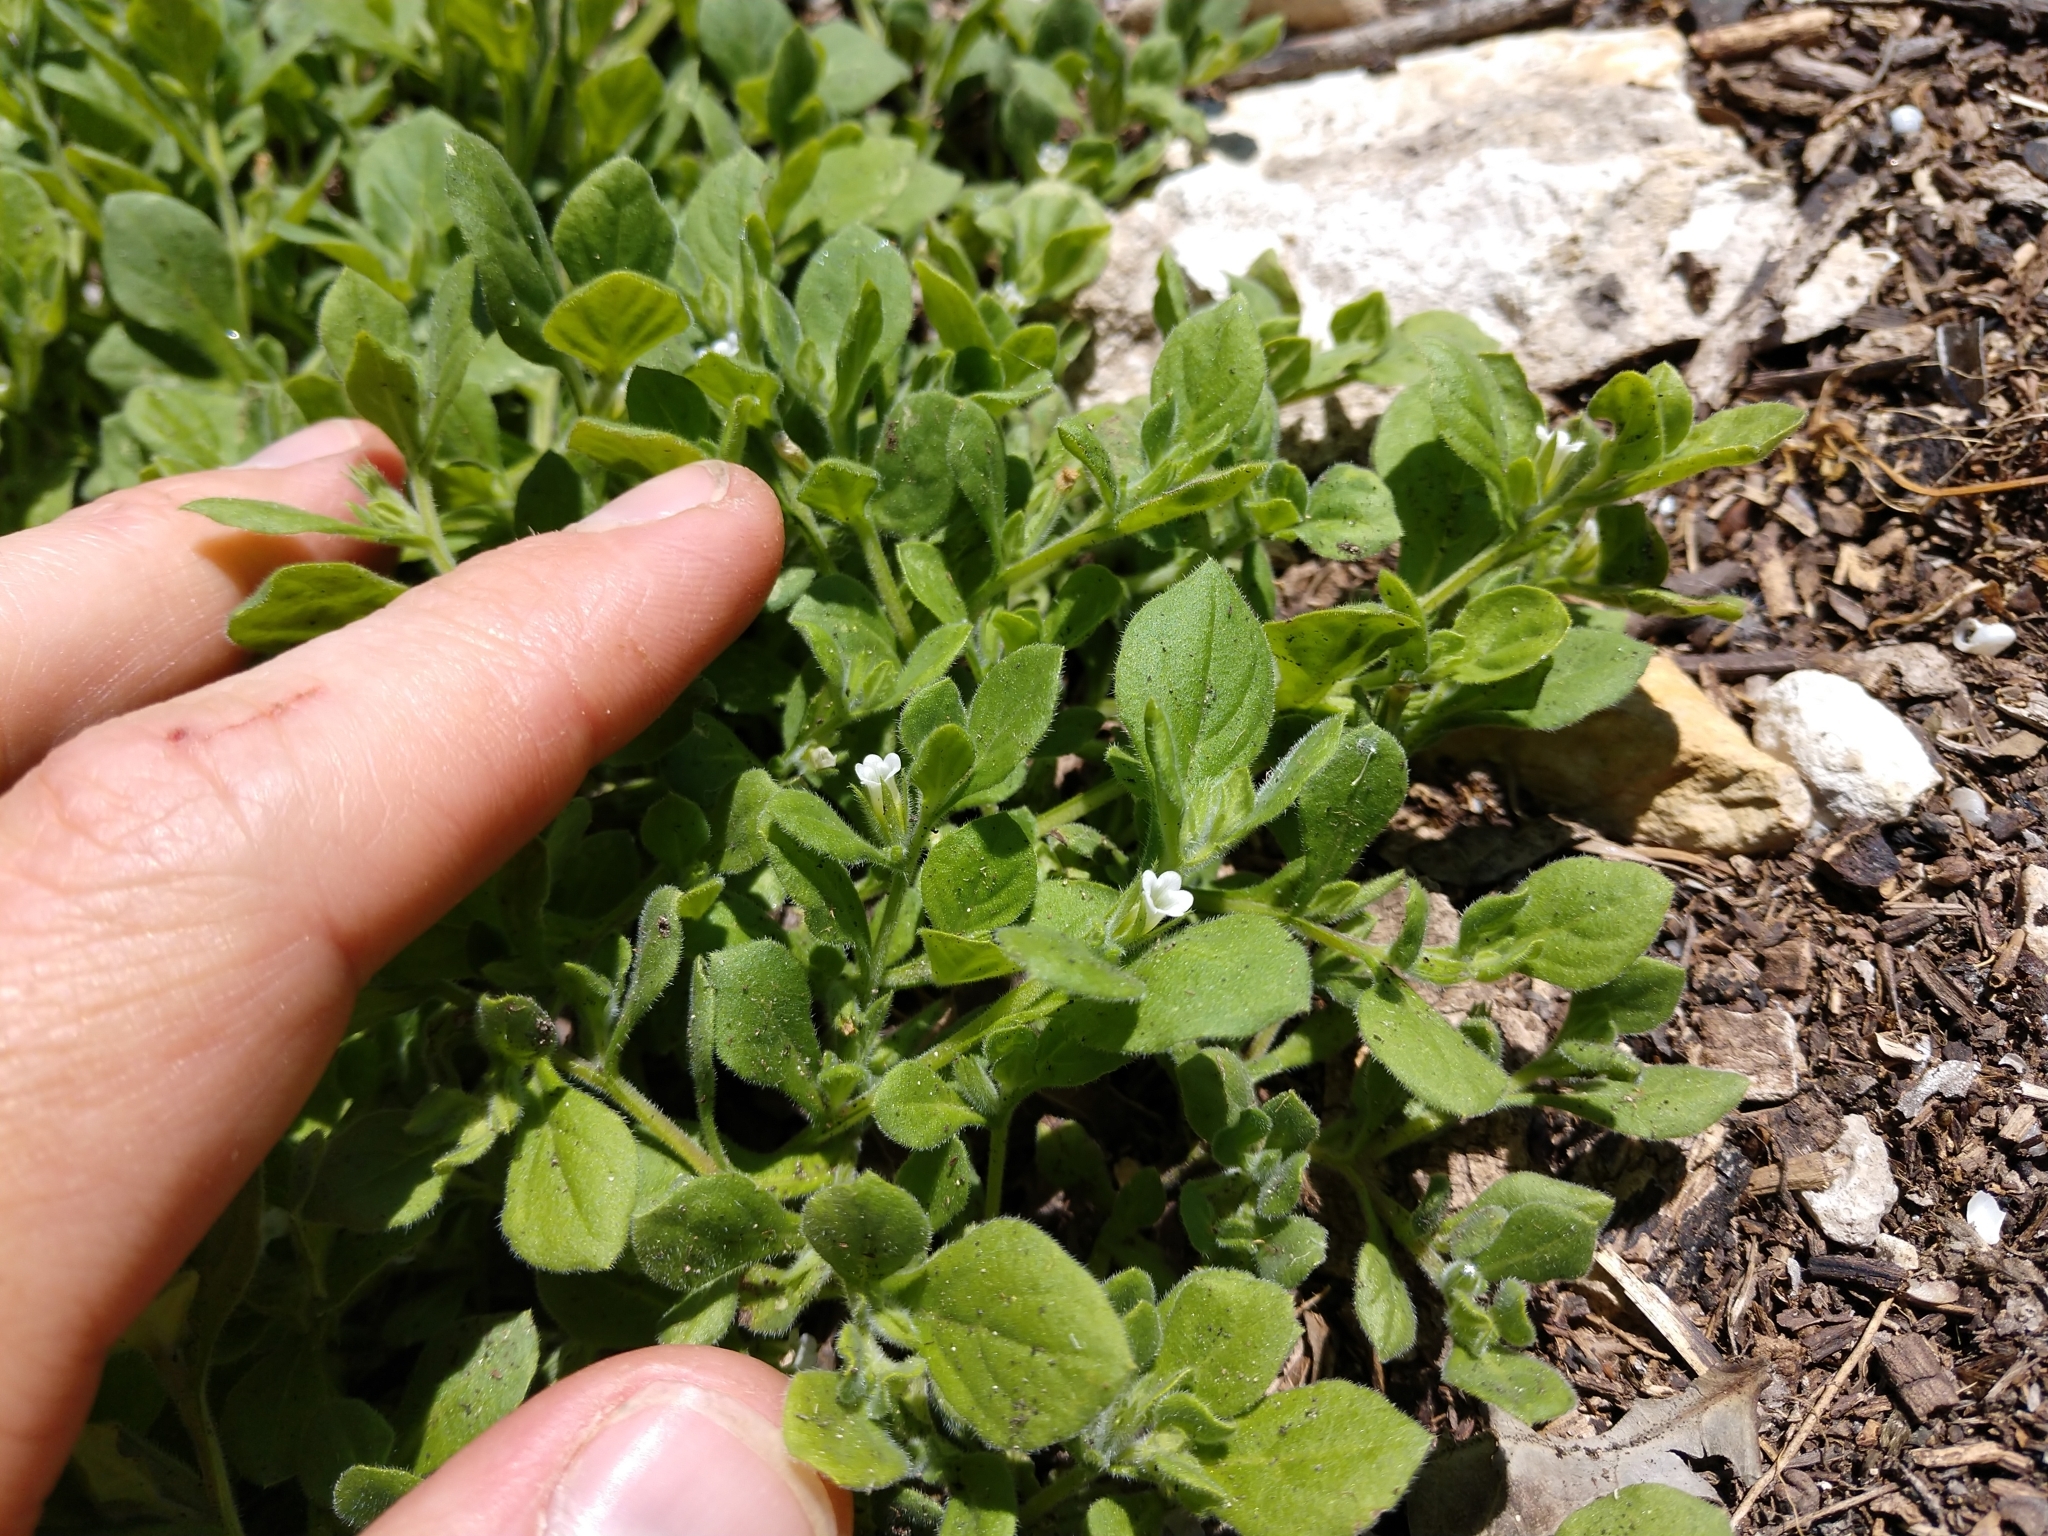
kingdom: Plantae
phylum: Tracheophyta
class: Magnoliopsida
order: Boraginales
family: Namaceae
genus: Nama
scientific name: Nama jamaicensis
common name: Jamaicanweed
